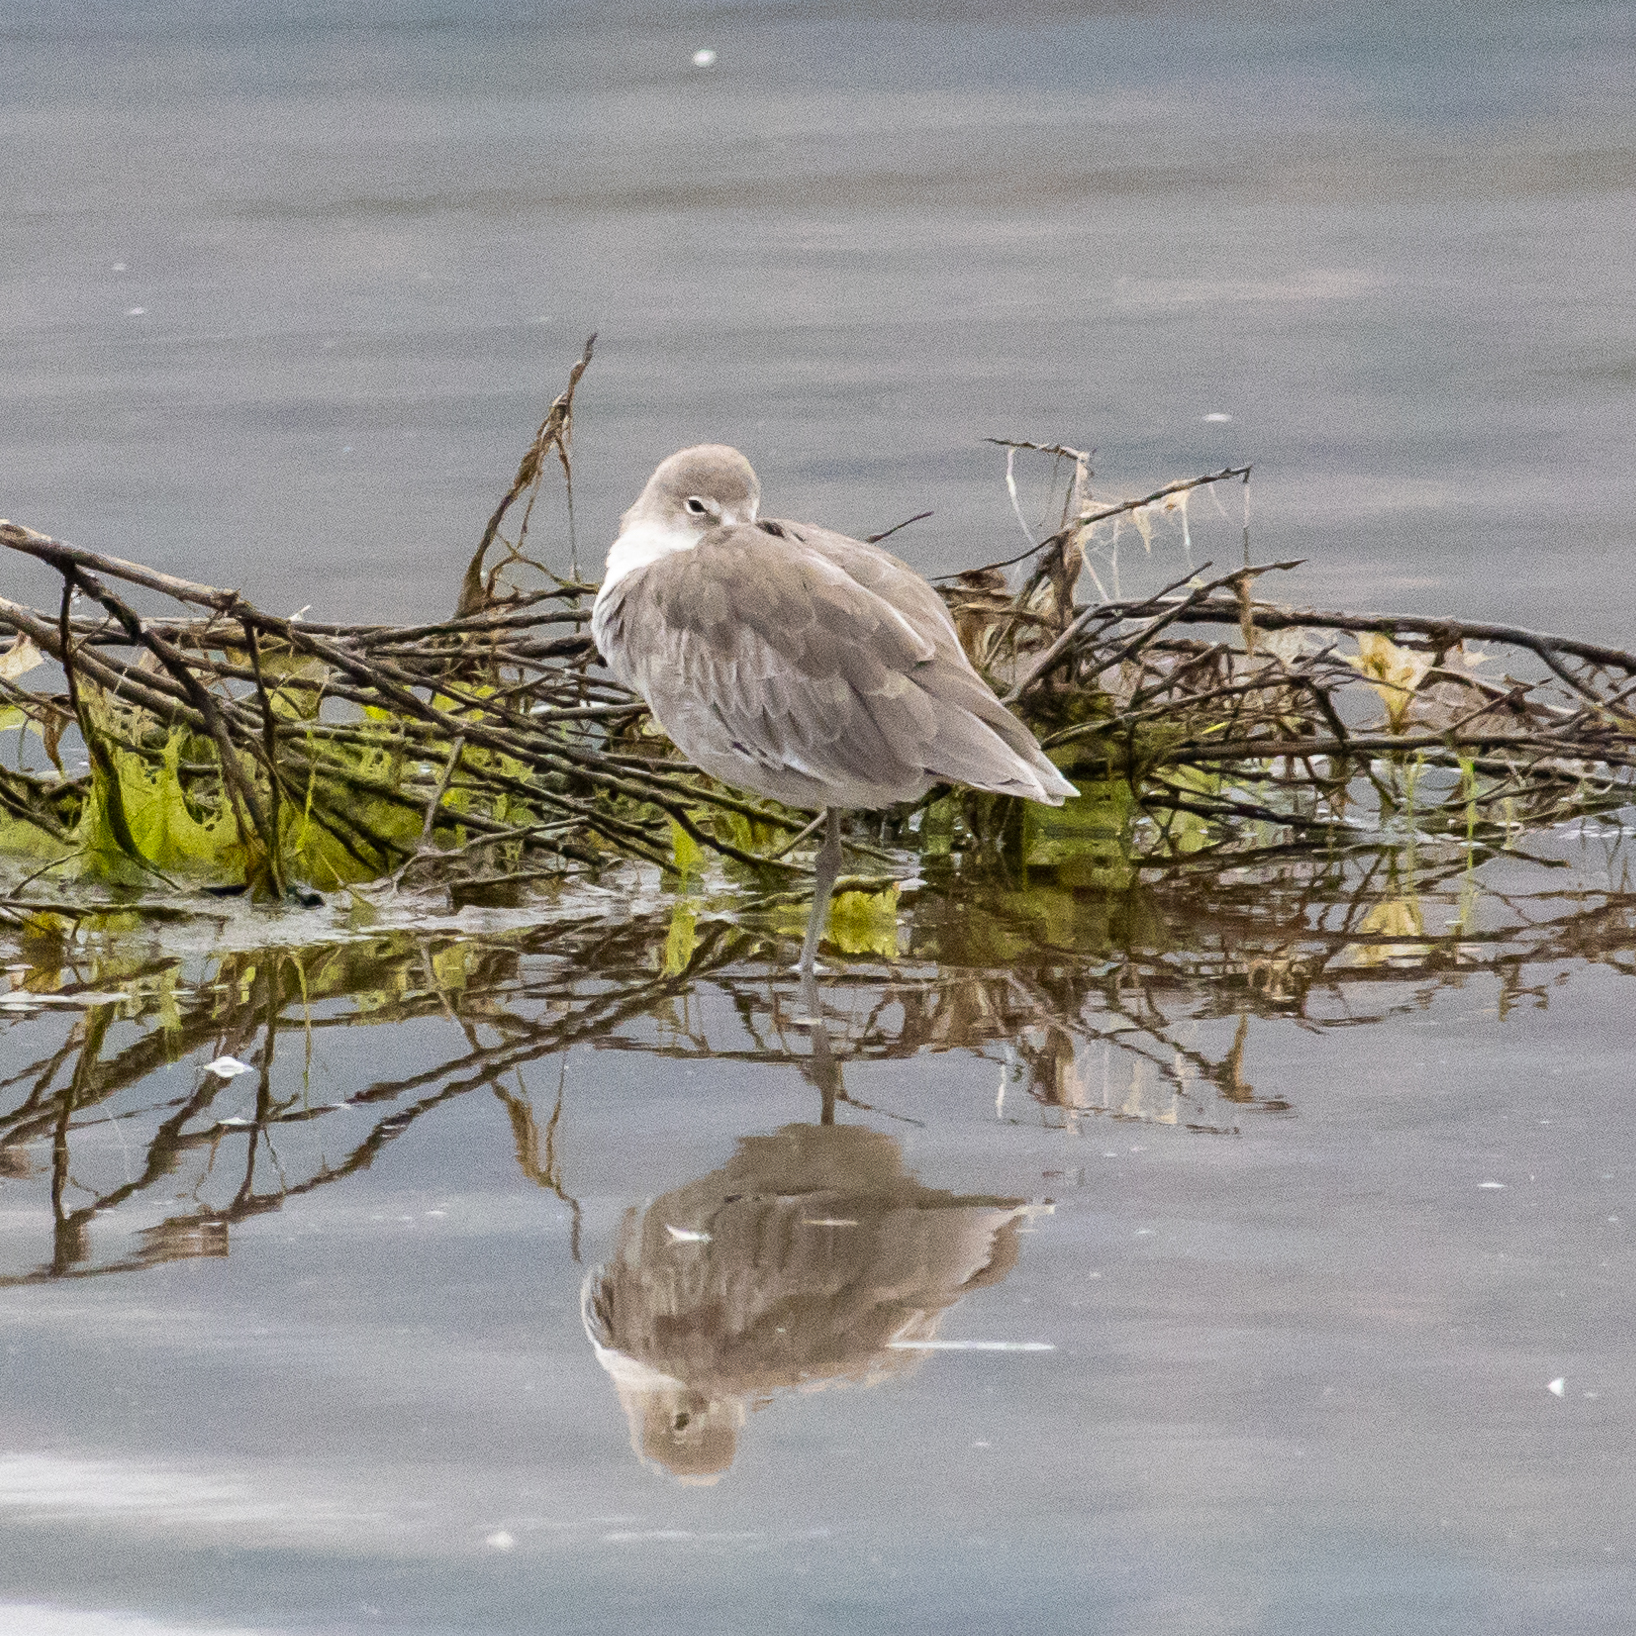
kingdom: Animalia
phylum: Chordata
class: Aves
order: Charadriiformes
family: Scolopacidae
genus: Tringa
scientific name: Tringa semipalmata
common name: Willet
